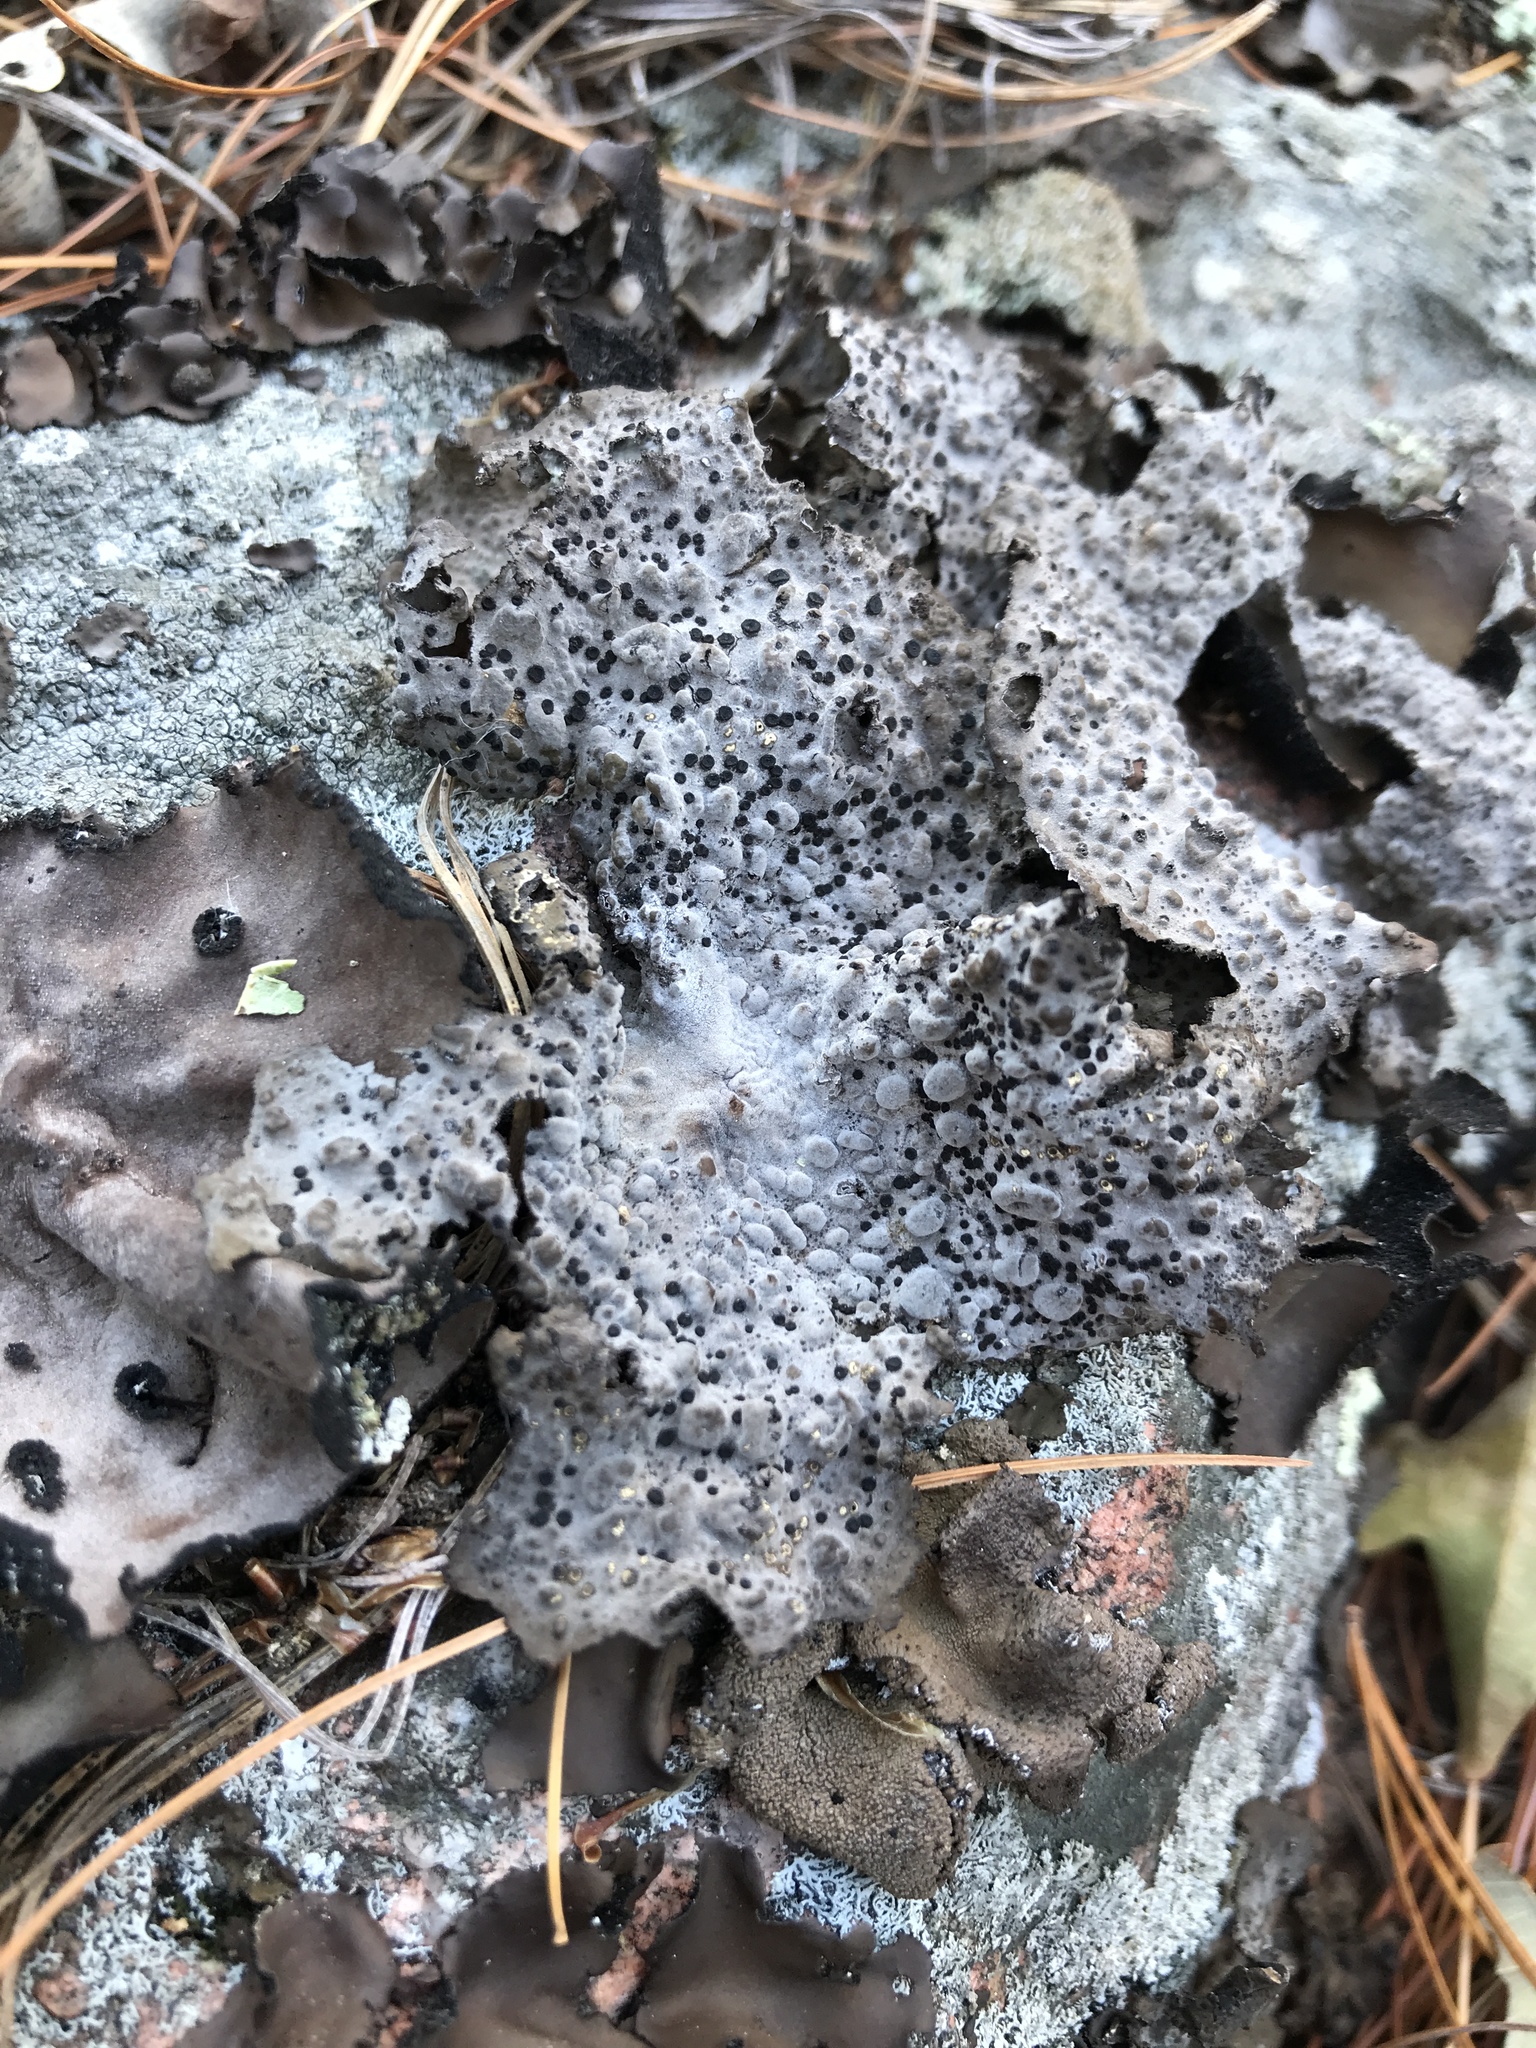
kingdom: Fungi
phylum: Ascomycota
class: Lecanoromycetes
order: Umbilicariales
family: Umbilicariaceae
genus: Lasallia
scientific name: Lasallia papulosa
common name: Common toadskin lichen
